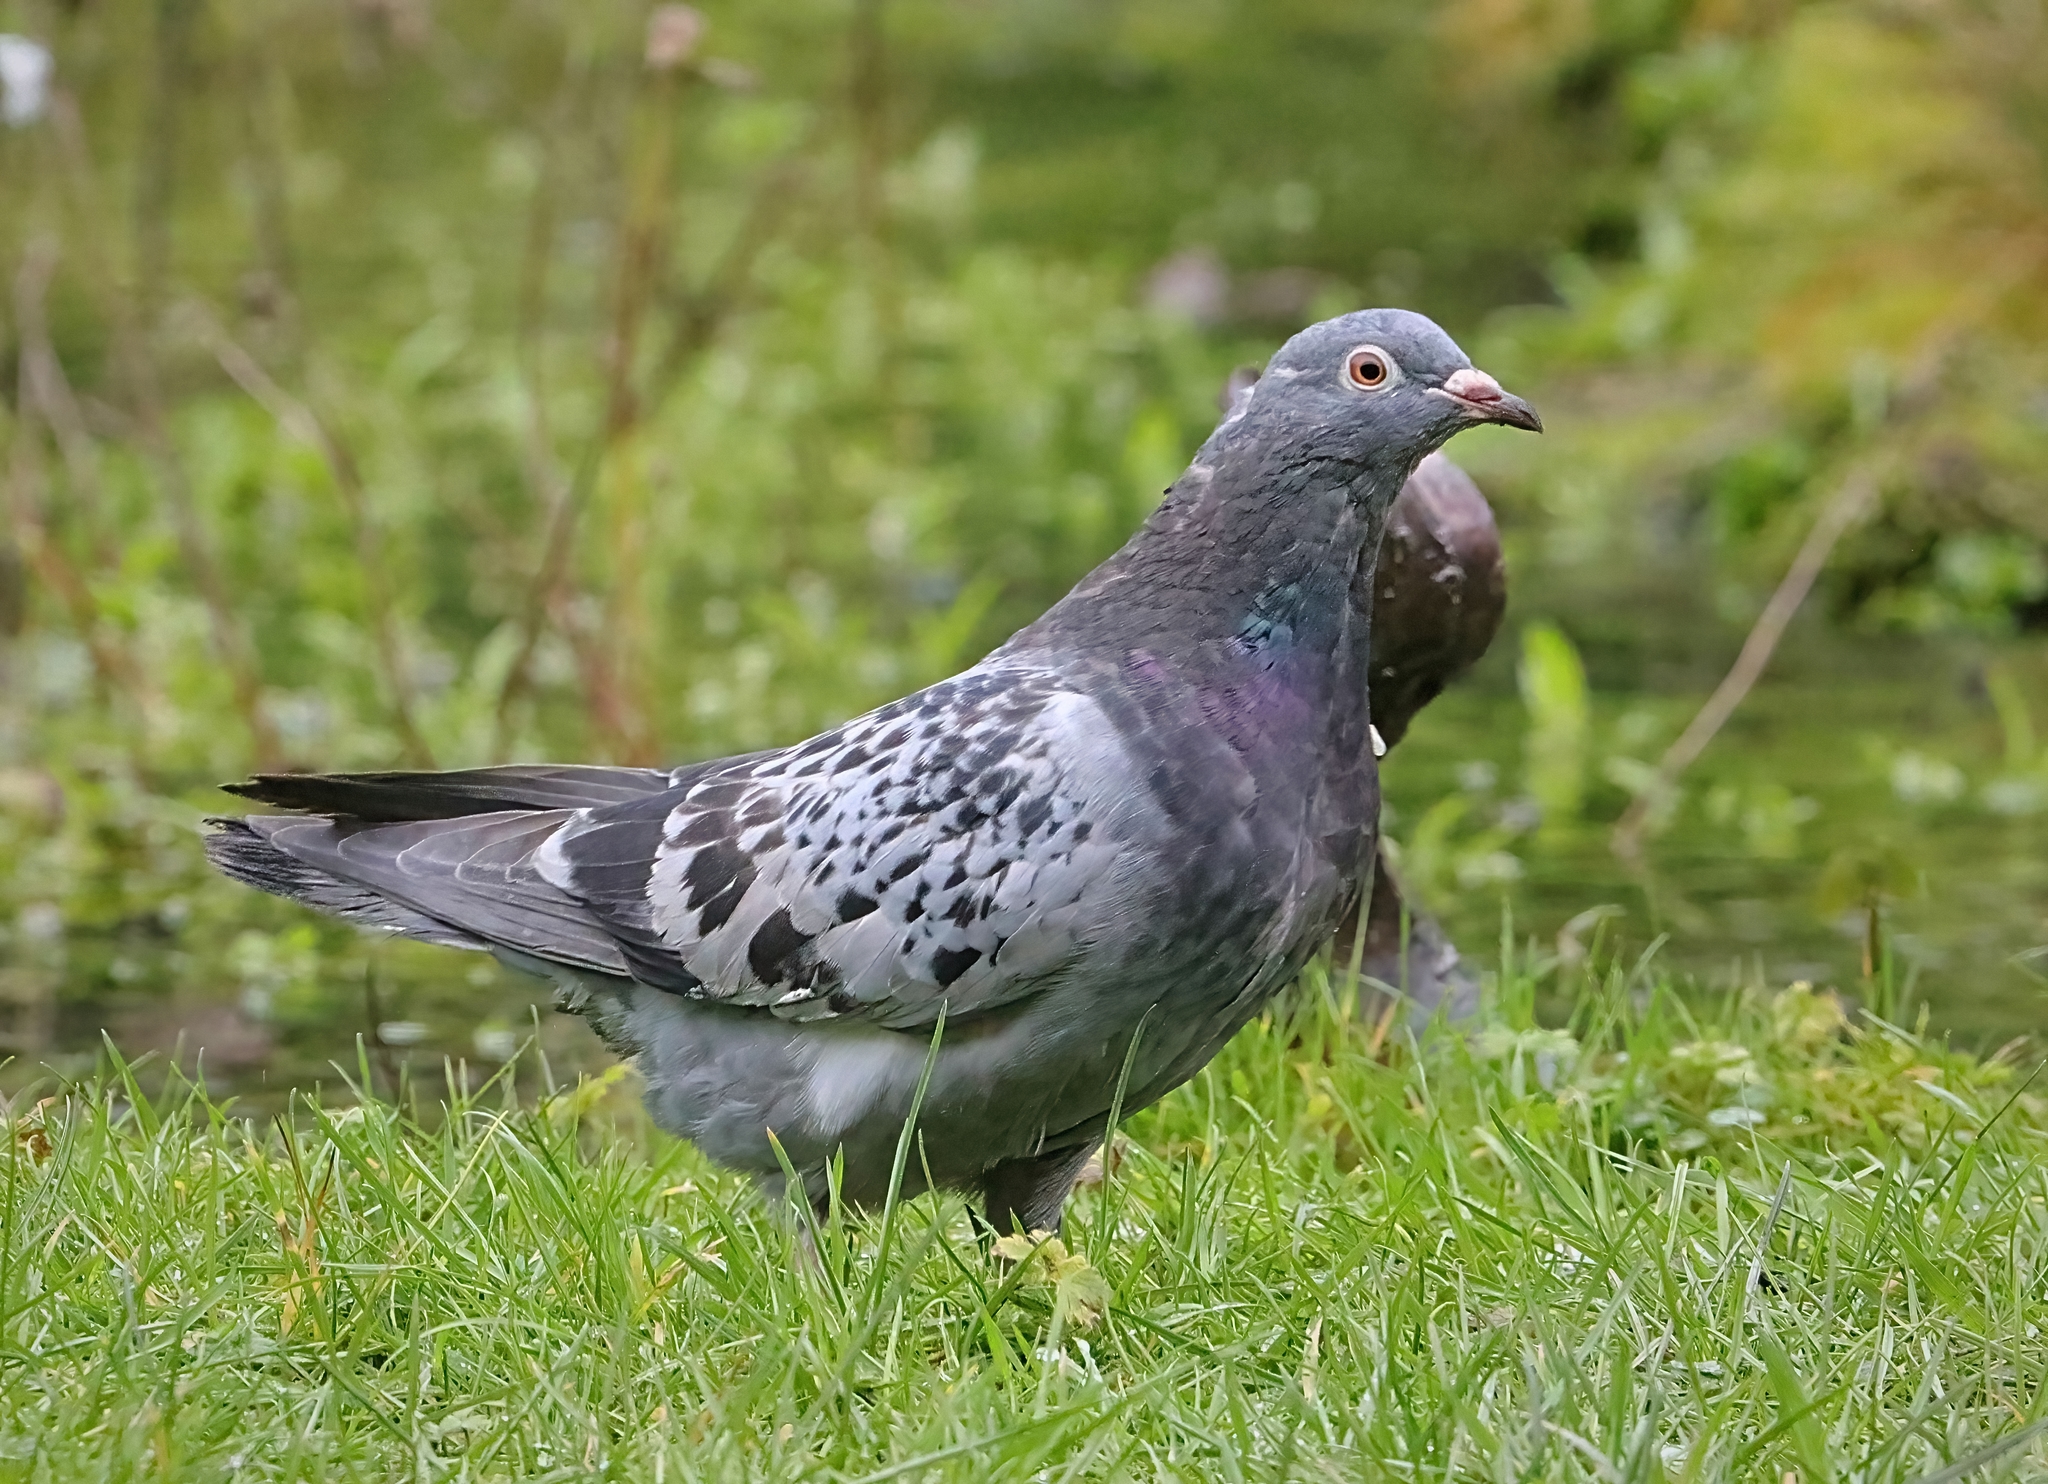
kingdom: Animalia
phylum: Chordata
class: Aves
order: Columbiformes
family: Columbidae
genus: Columba
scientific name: Columba livia
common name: Rock pigeon
